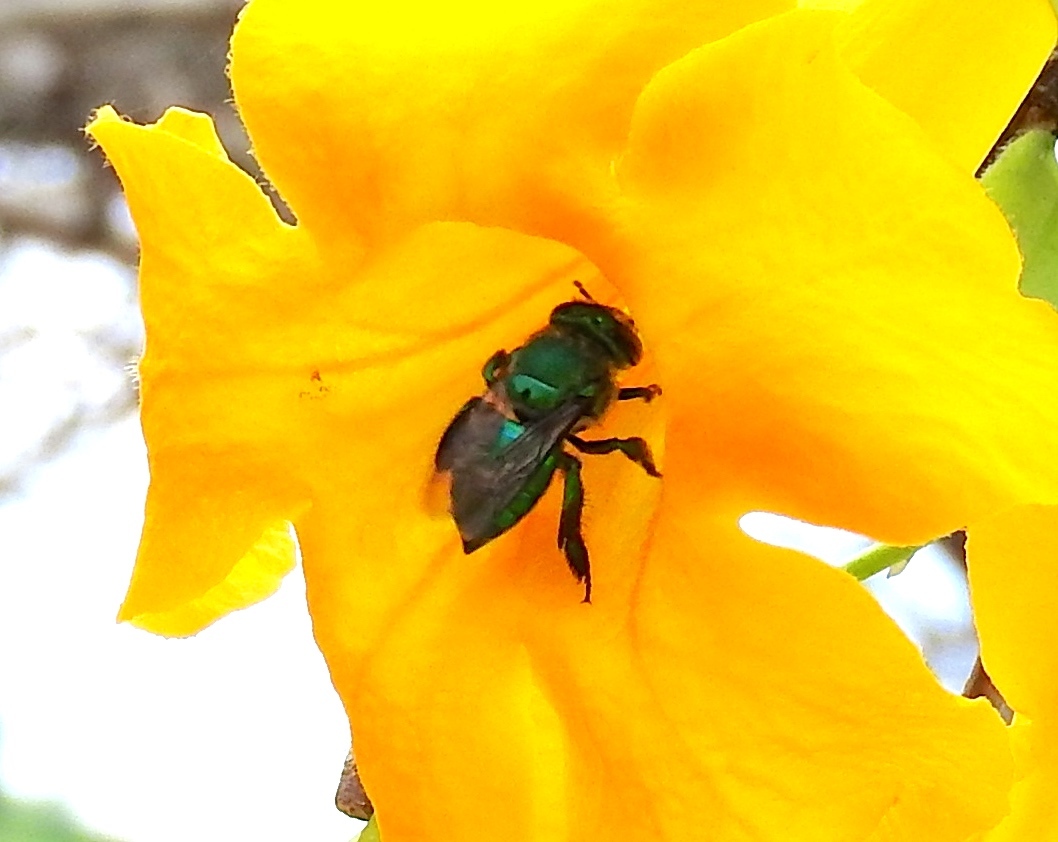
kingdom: Animalia
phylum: Arthropoda
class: Insecta
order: Hymenoptera
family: Apidae
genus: Euglossa
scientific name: Euglossa
